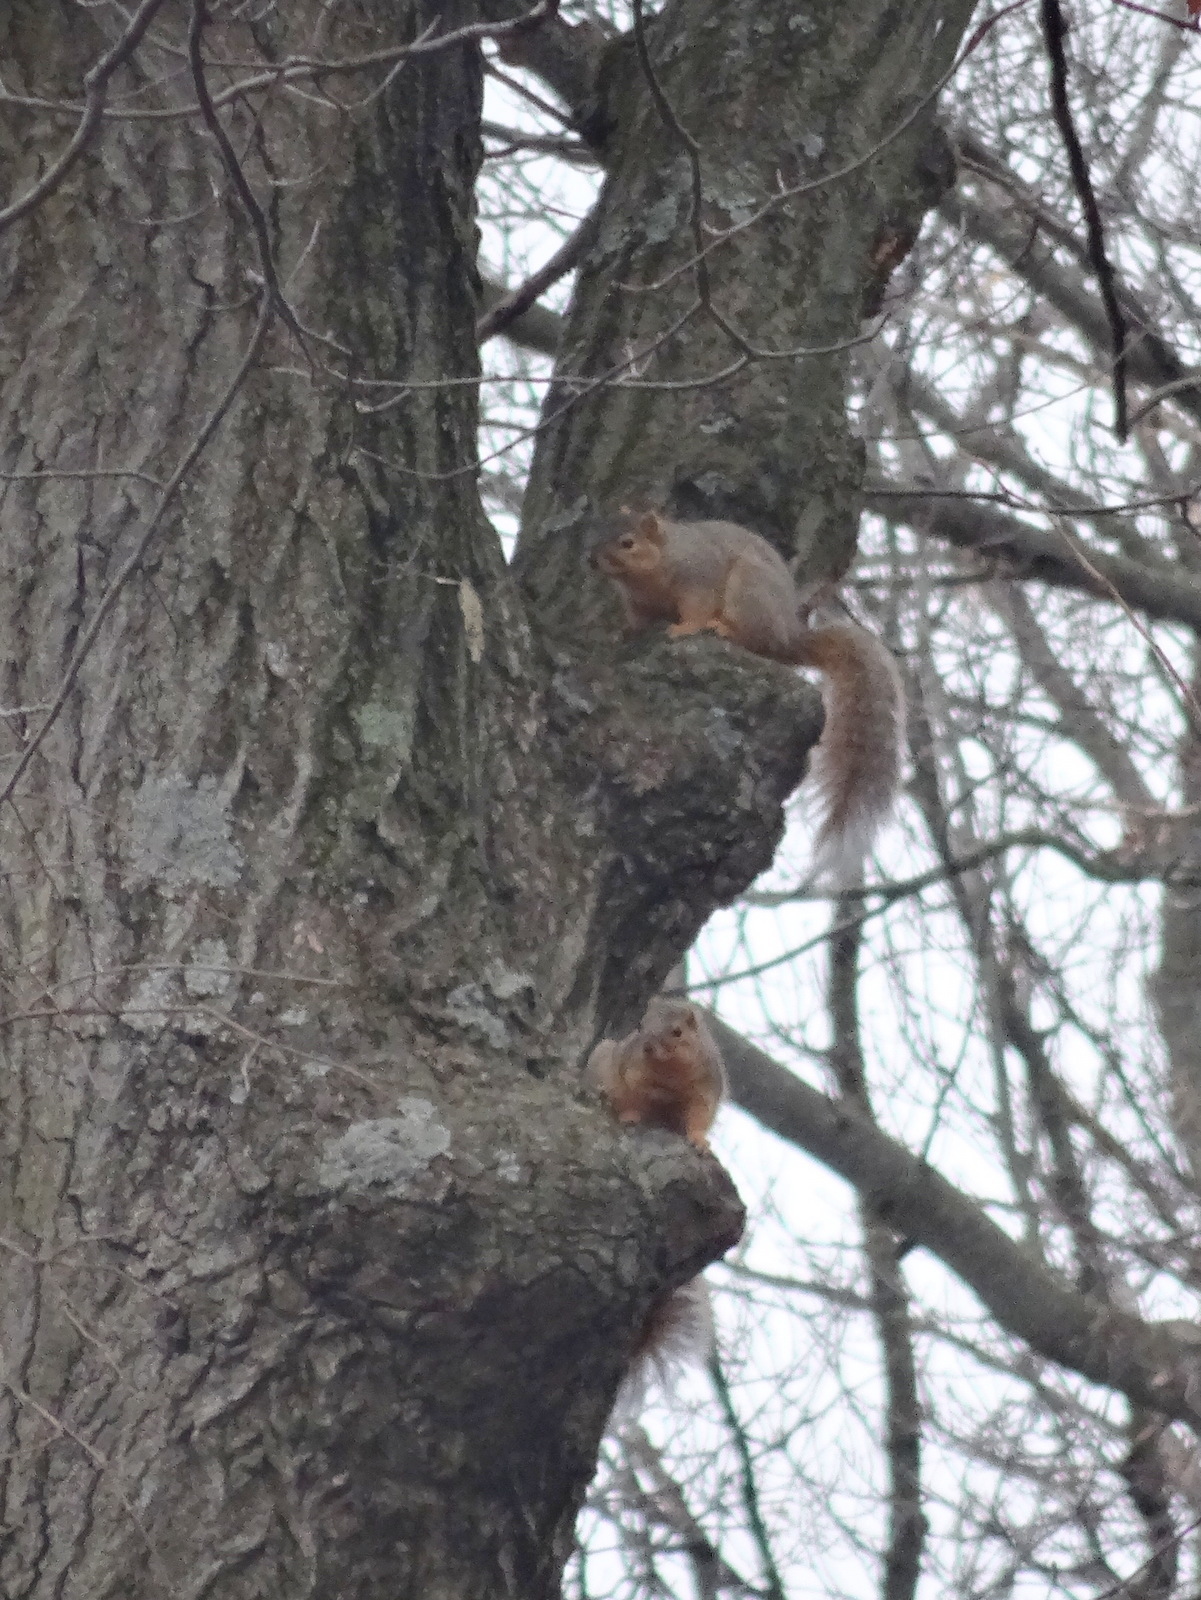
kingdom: Animalia
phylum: Chordata
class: Mammalia
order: Rodentia
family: Sciuridae
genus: Sciurus
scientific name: Sciurus niger
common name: Fox squirrel
